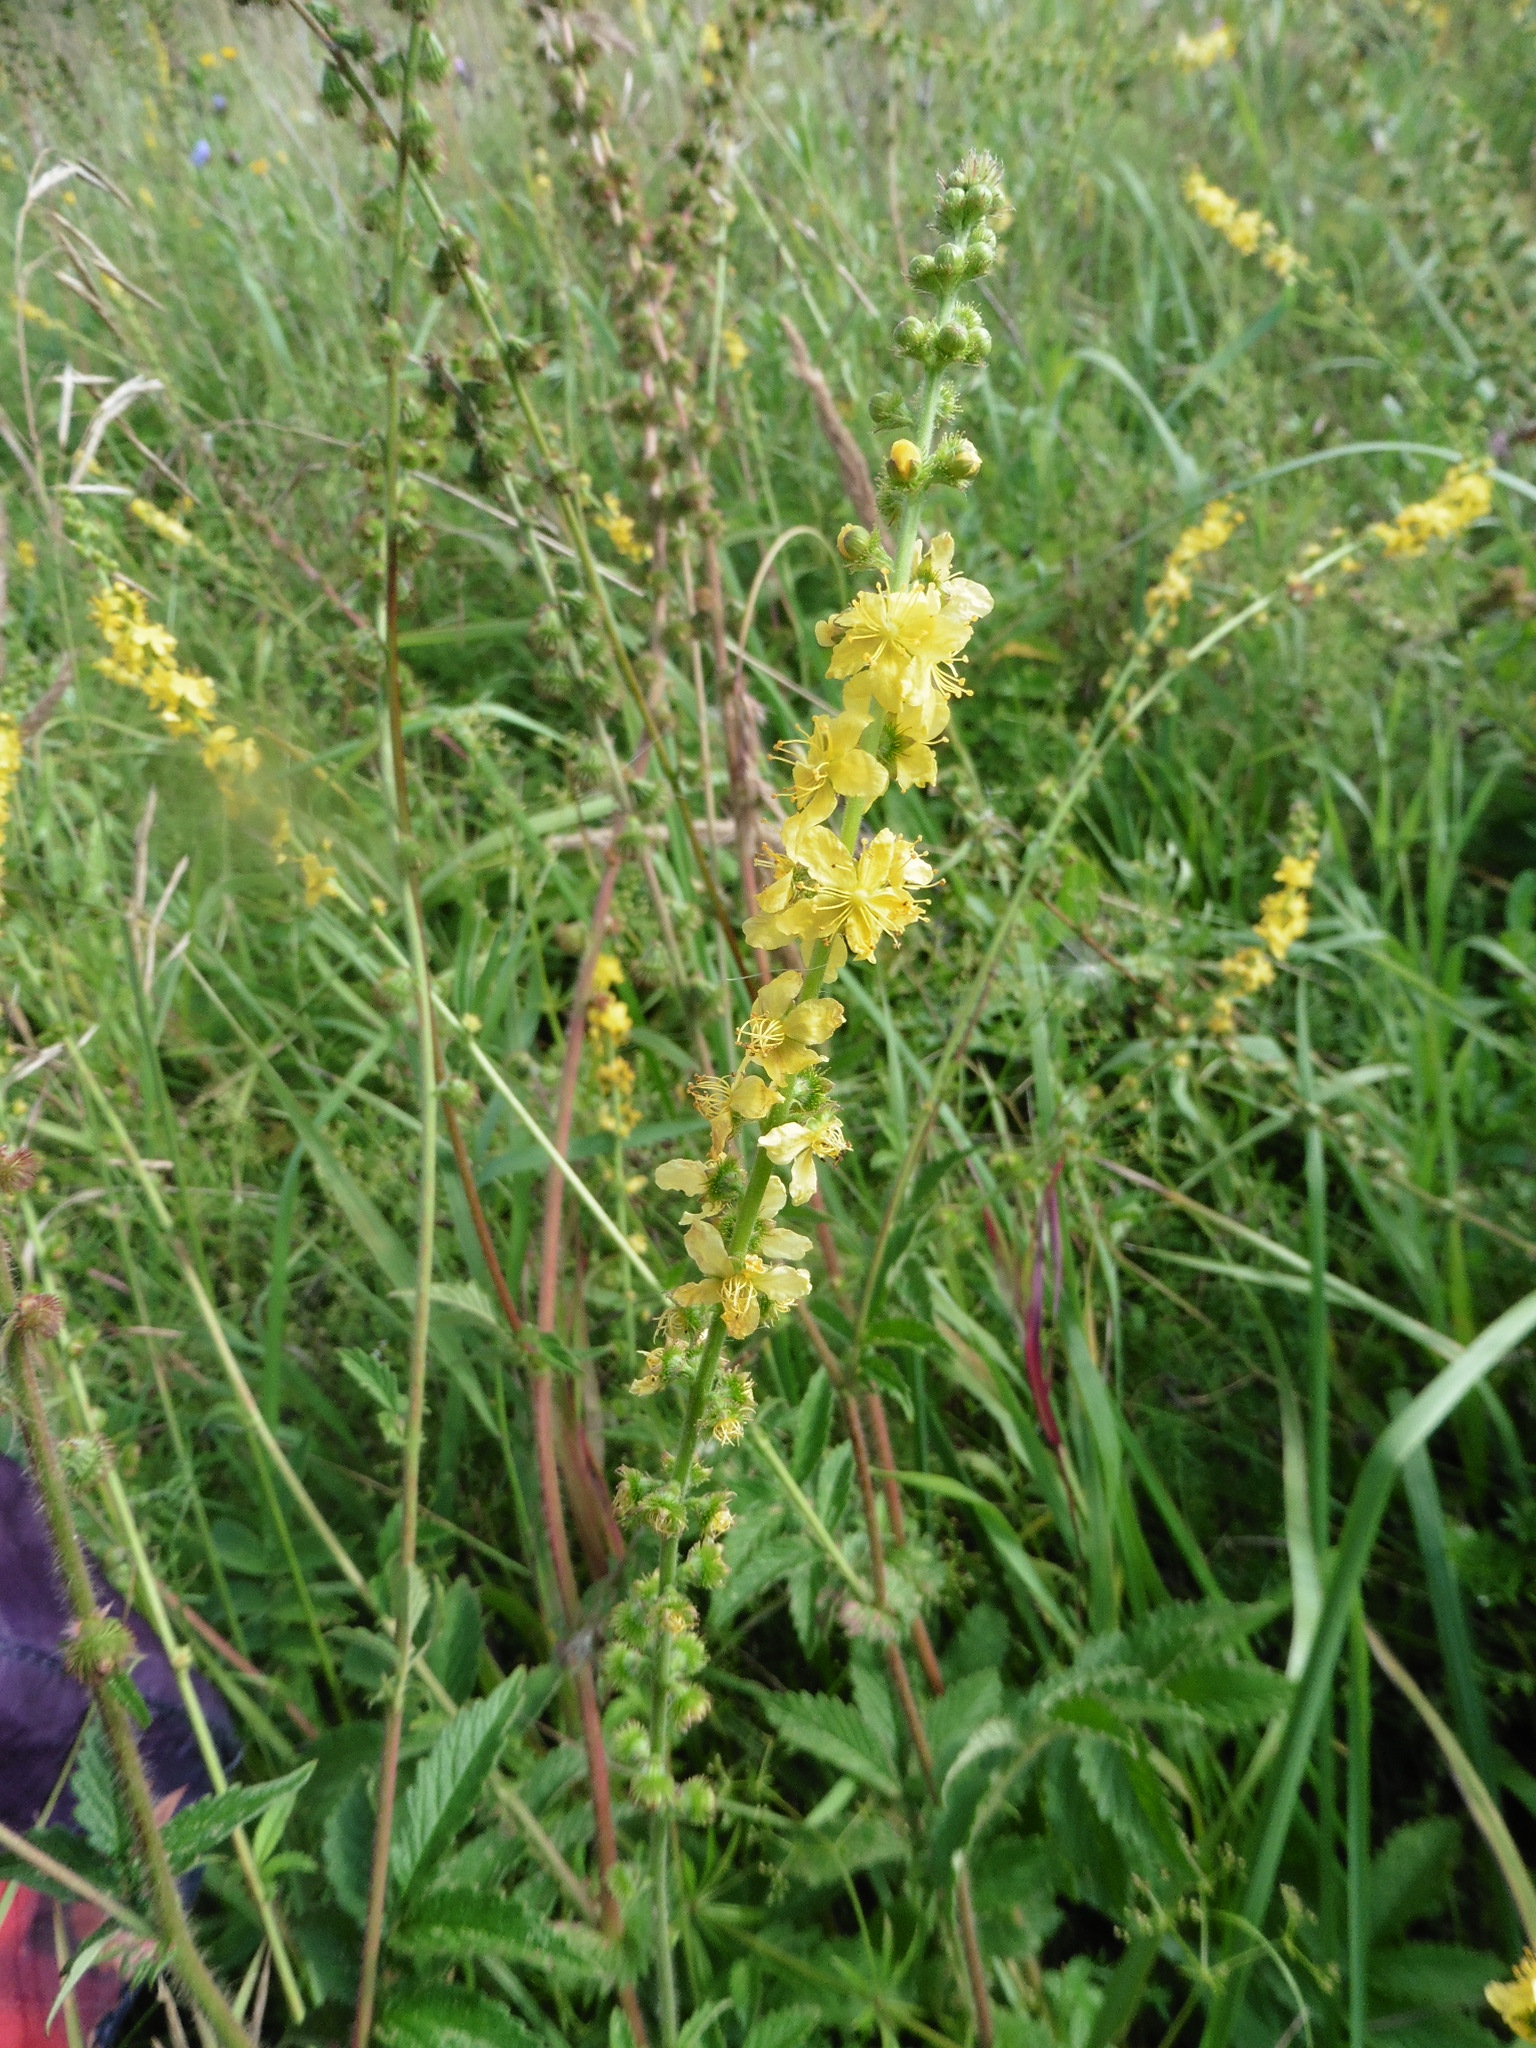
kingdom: Plantae
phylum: Tracheophyta
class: Magnoliopsida
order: Rosales
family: Rosaceae
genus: Agrimonia
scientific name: Agrimonia eupatoria
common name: Agrimony
